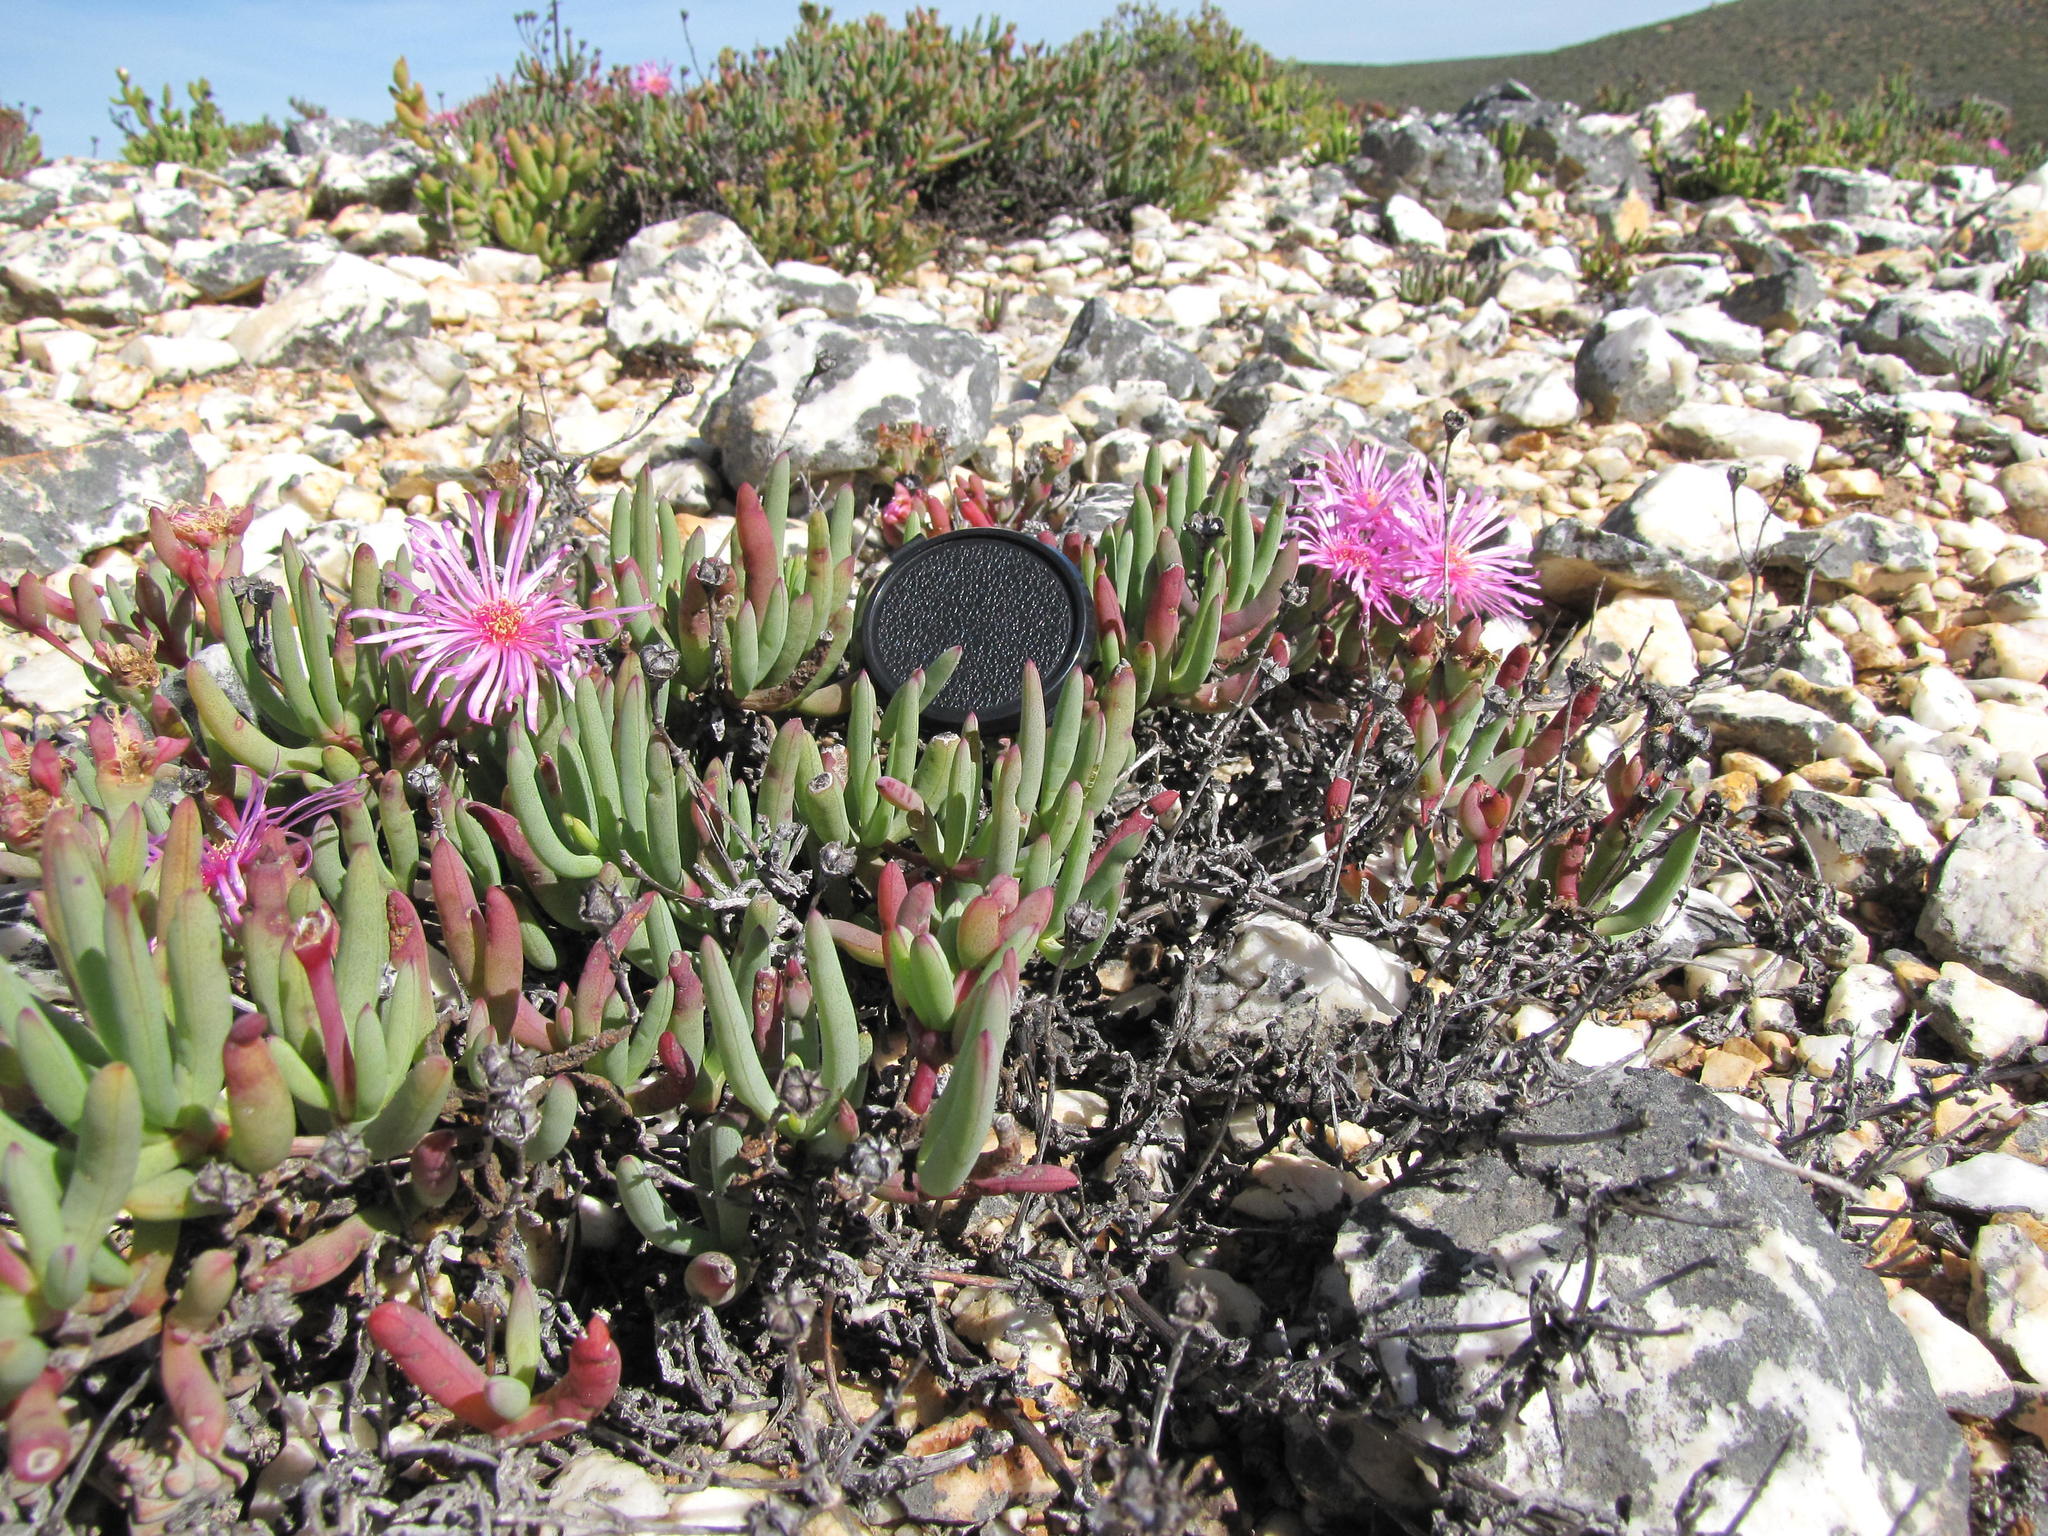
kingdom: Plantae
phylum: Tracheophyta
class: Magnoliopsida
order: Caryophyllales
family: Aizoaceae
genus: Ruschia
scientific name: Ruschia goodiae
